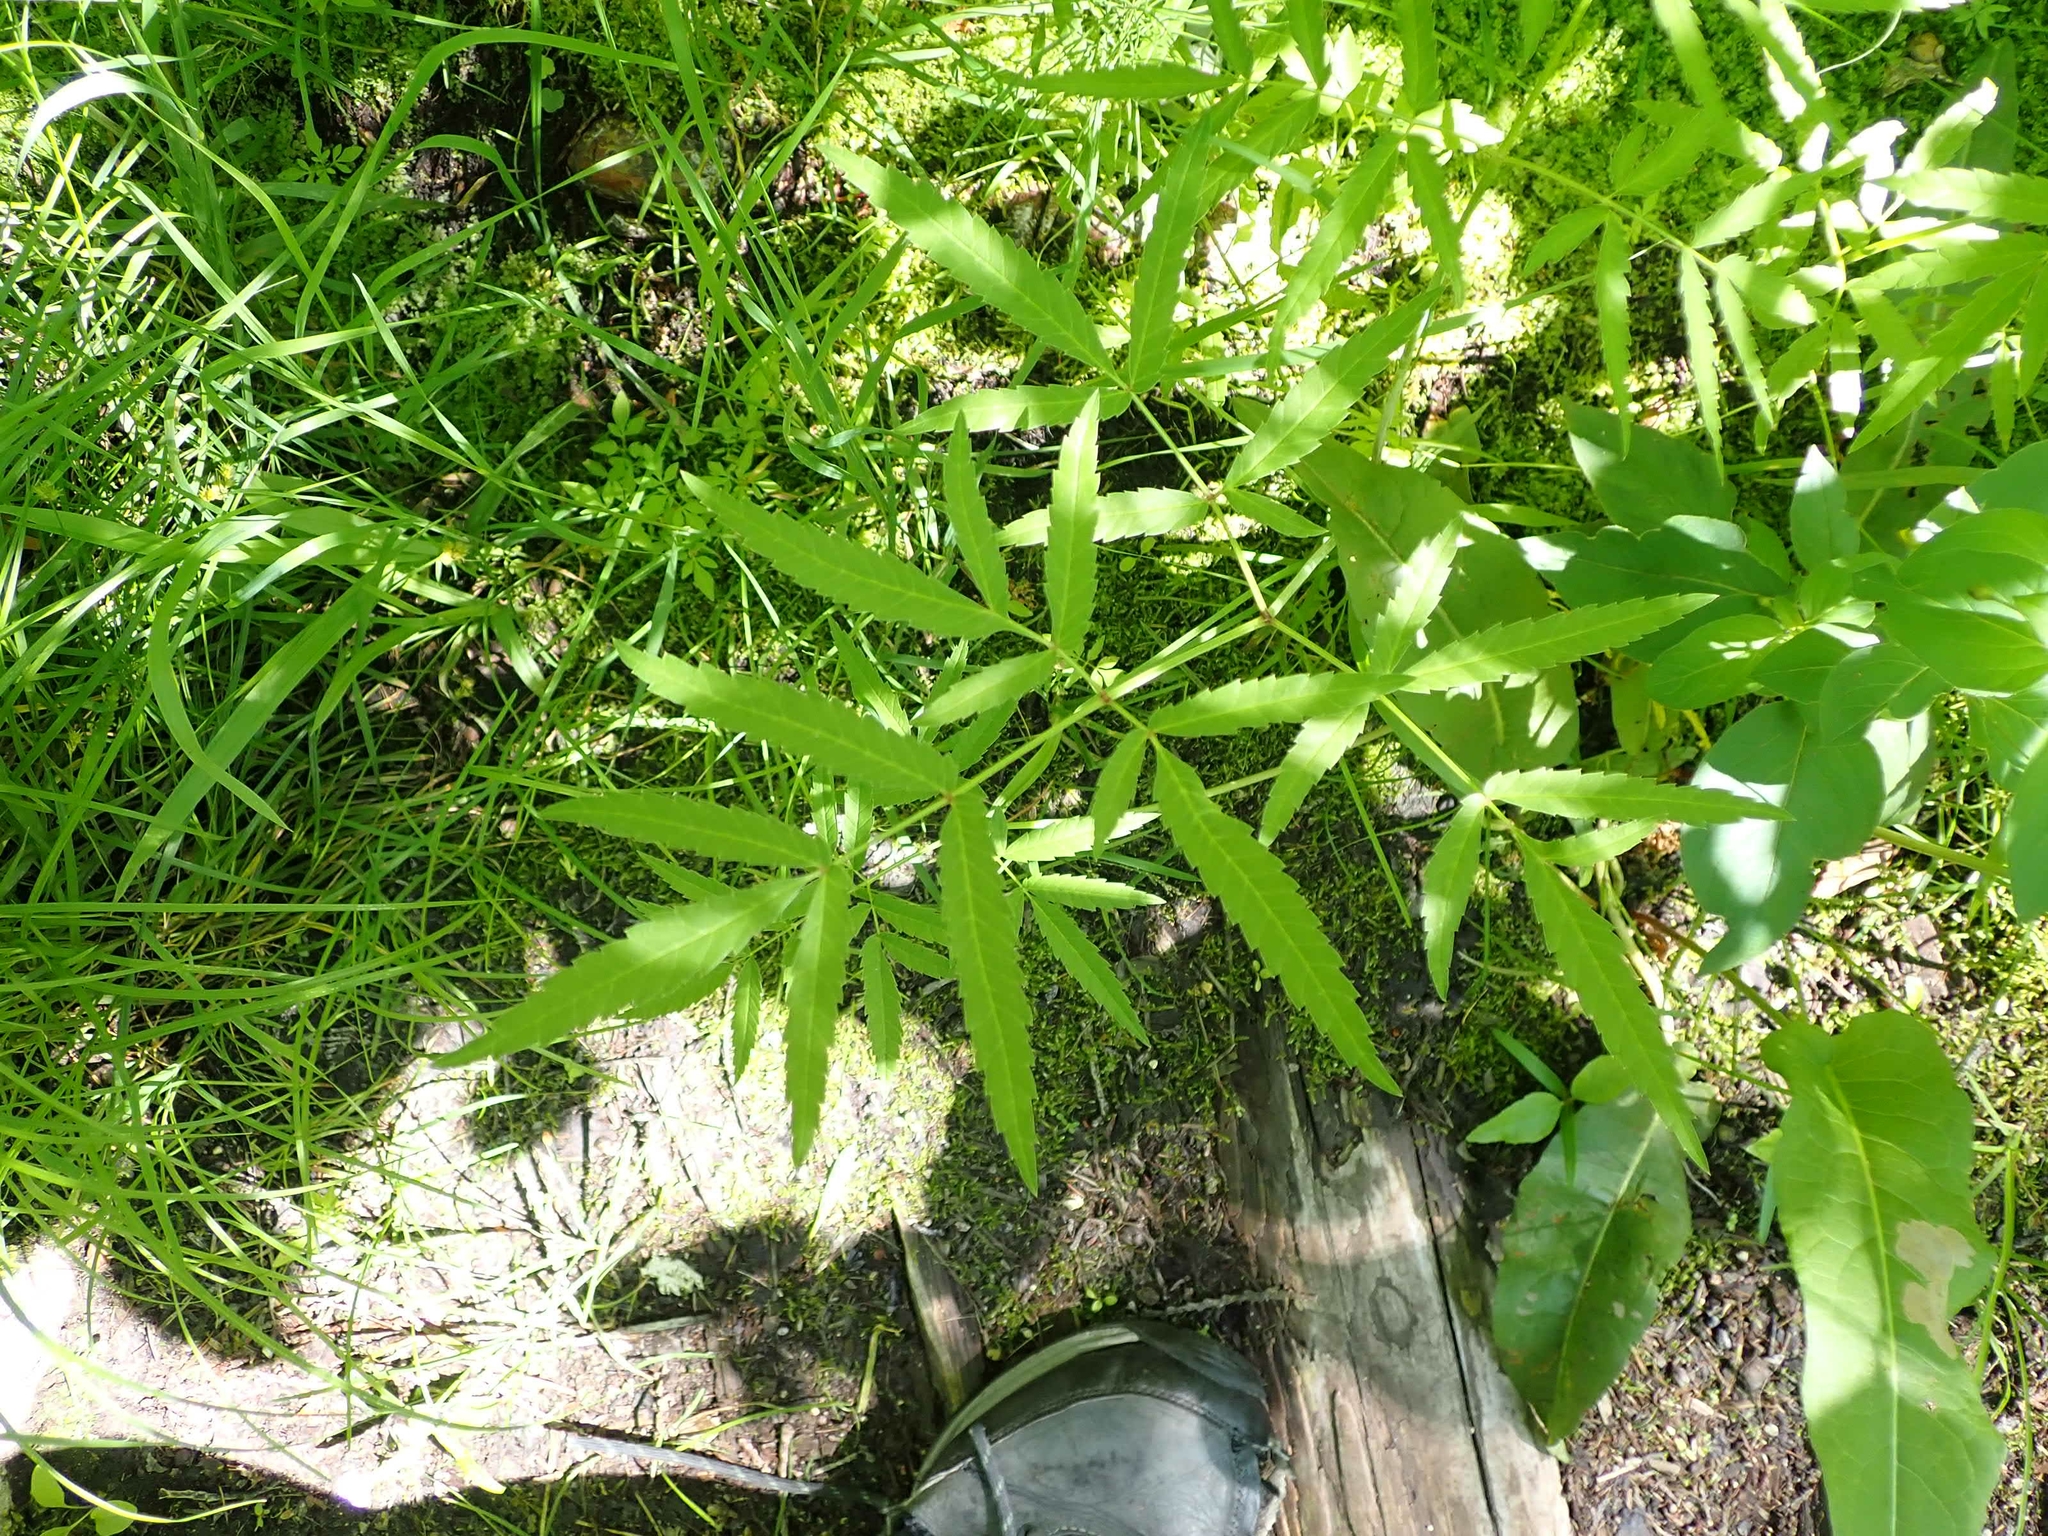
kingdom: Plantae
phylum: Tracheophyta
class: Magnoliopsida
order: Apiales
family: Apiaceae
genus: Cicuta
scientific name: Cicuta maculata
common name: Spotted cowbane
